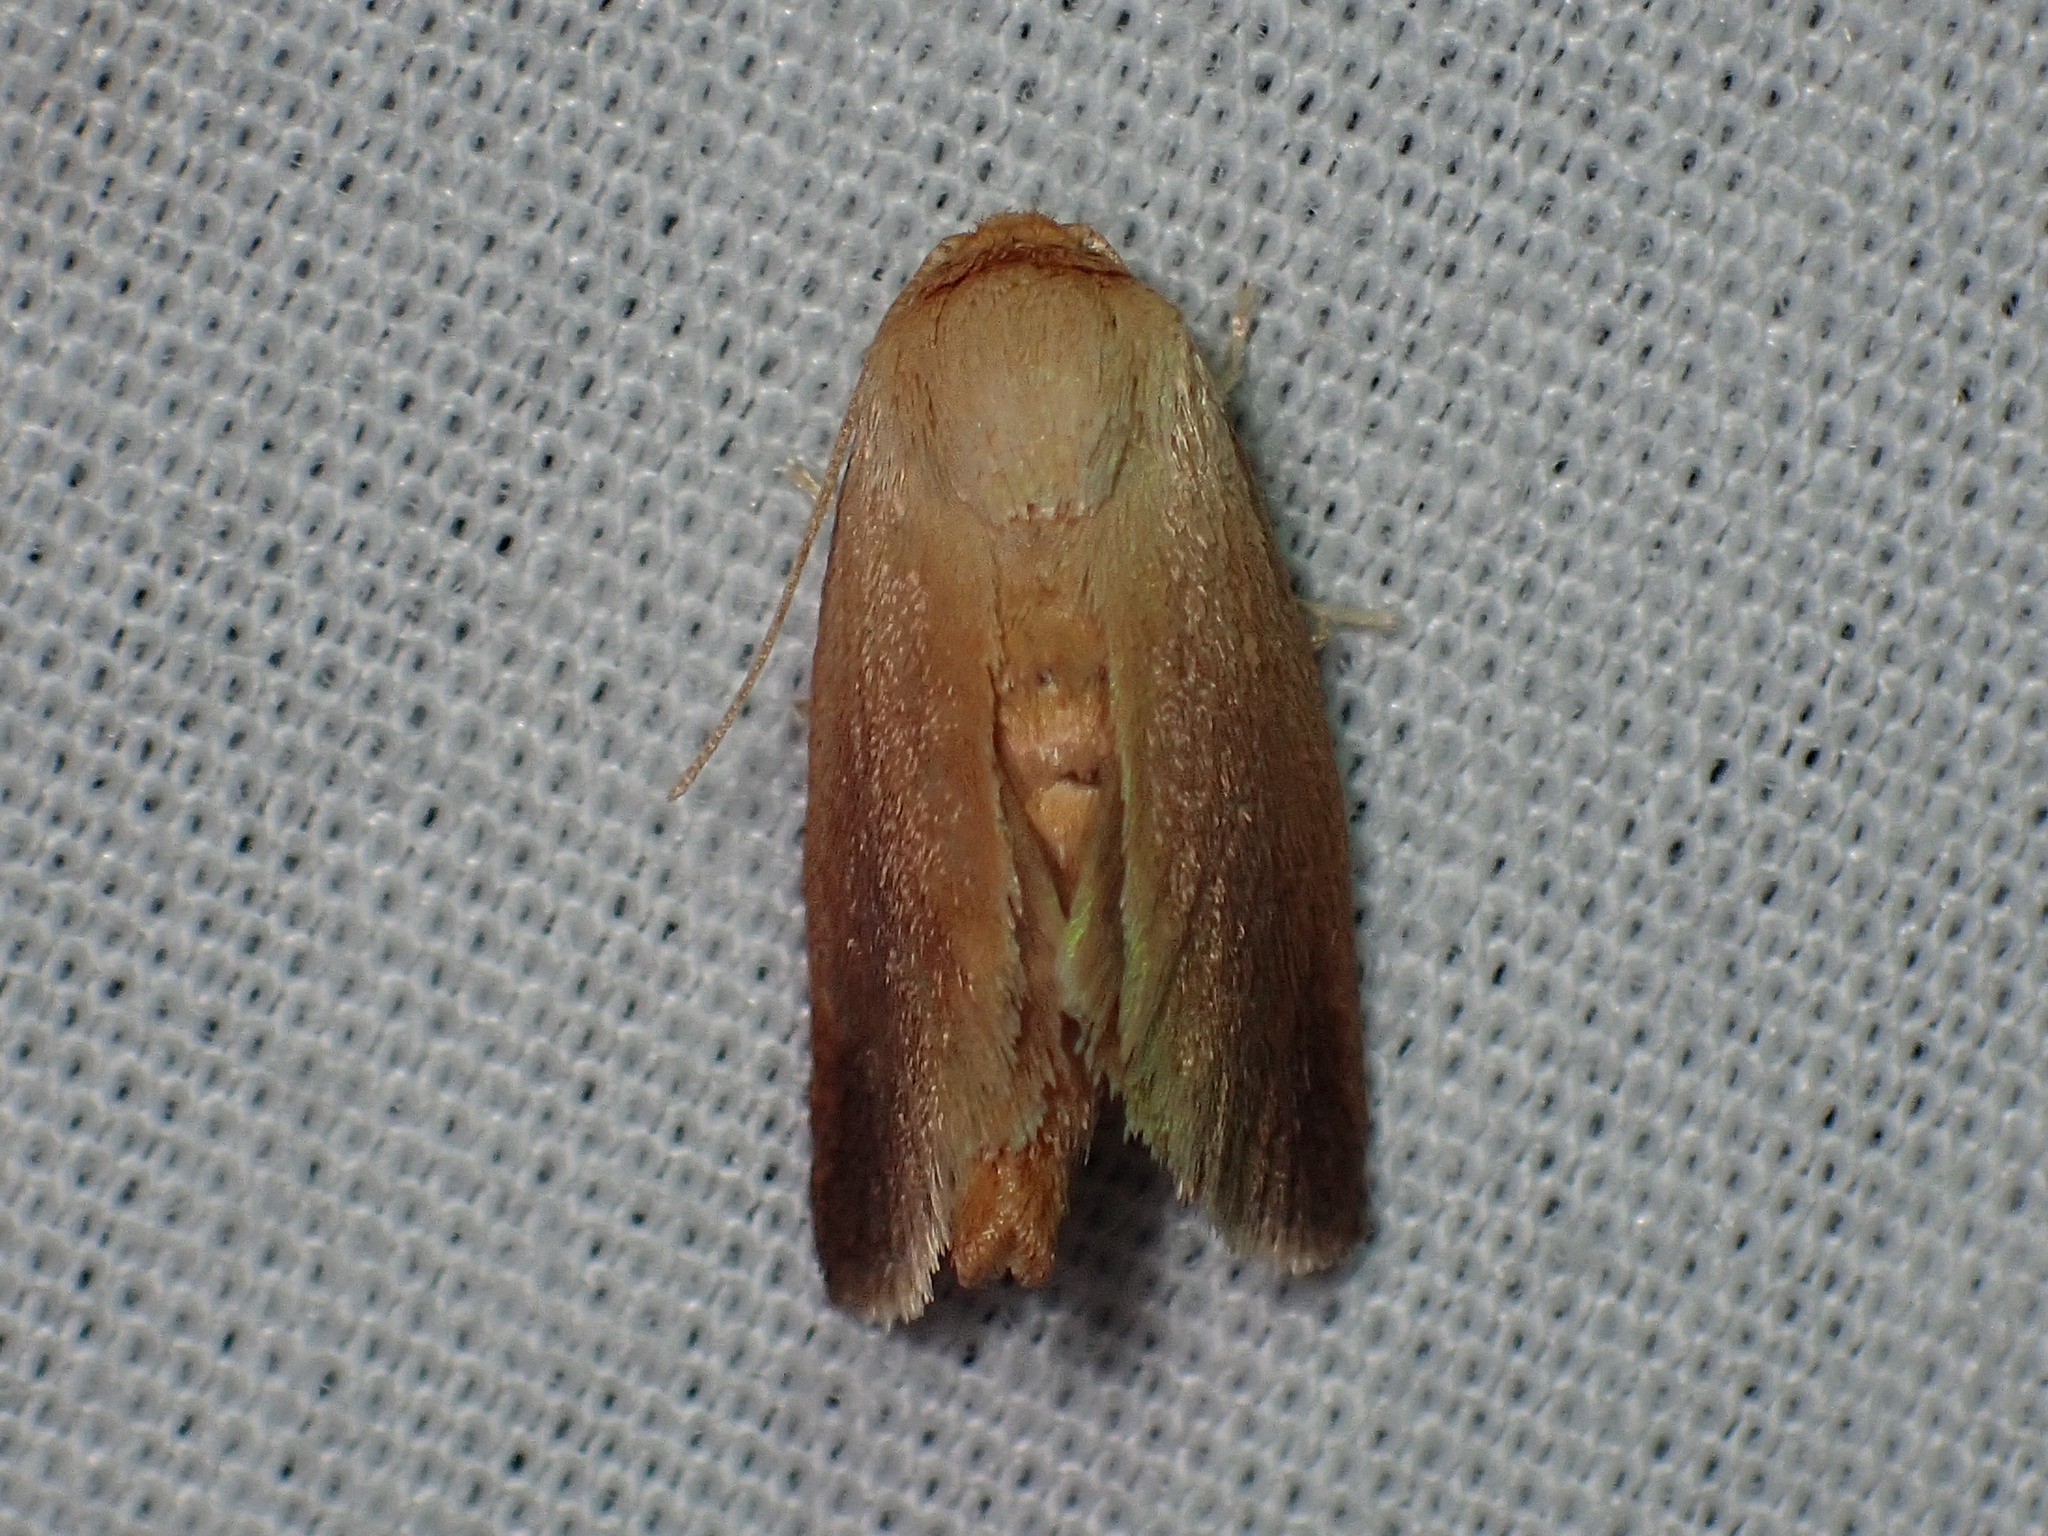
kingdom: Animalia
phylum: Arthropoda
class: Insecta
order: Lepidoptera
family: Limacodidae
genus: Tortricidia
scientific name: Tortricidia testacea
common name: Early button slug moth
